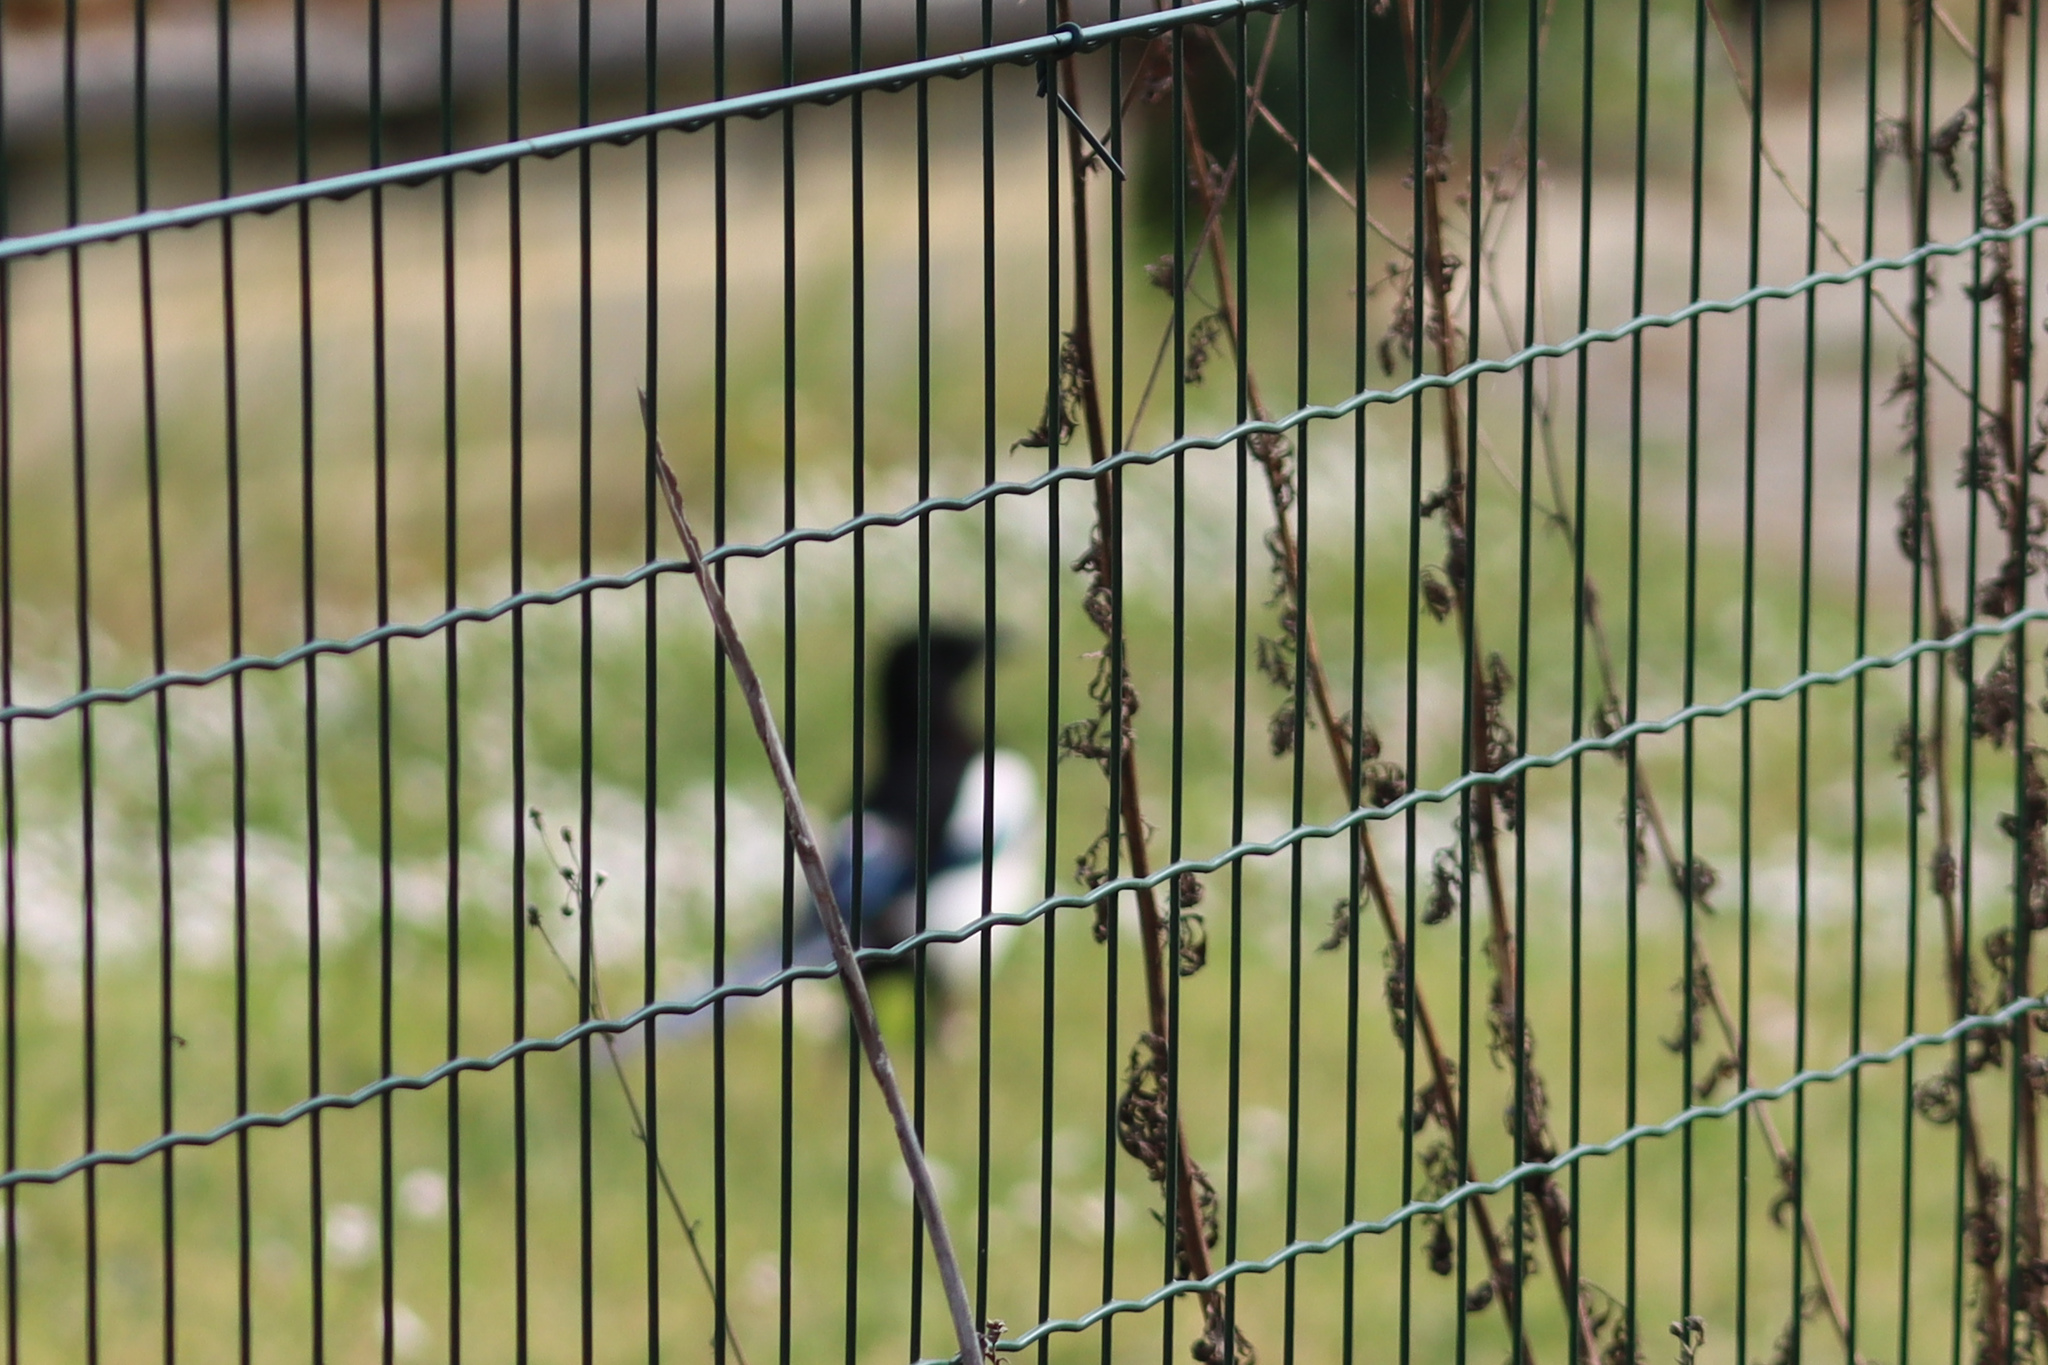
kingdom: Animalia
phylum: Chordata
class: Aves
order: Passeriformes
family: Corvidae
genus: Pica
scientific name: Pica pica
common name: Eurasian magpie
